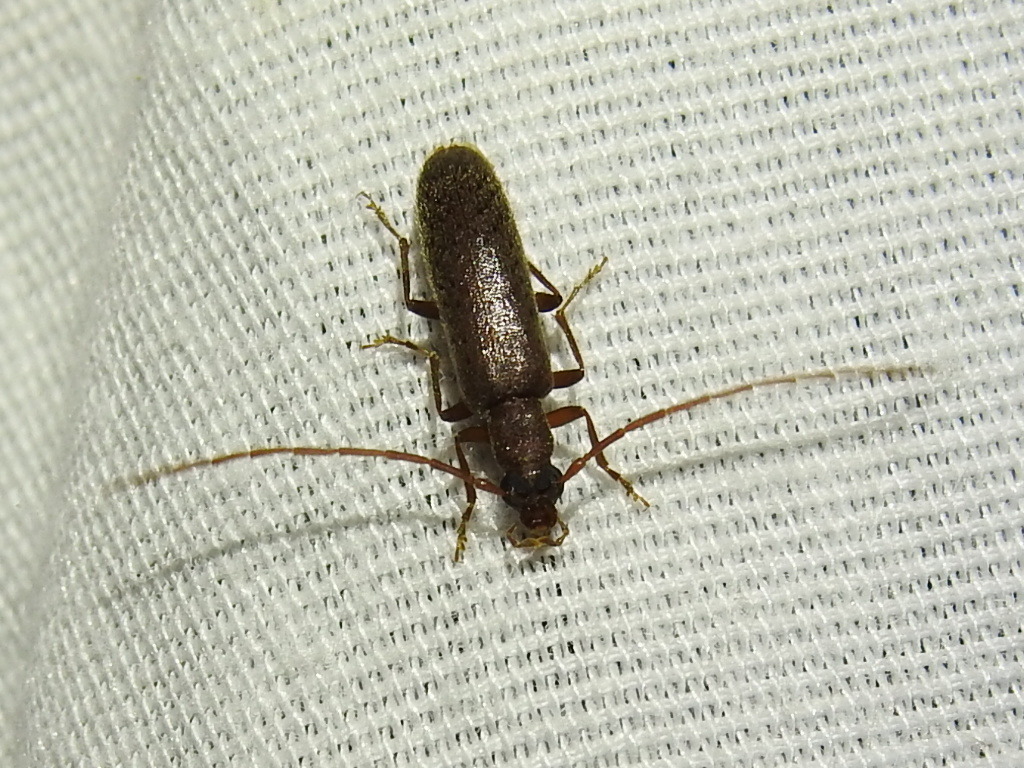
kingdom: Animalia
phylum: Arthropoda
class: Insecta
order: Coleoptera
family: Oedemeridae
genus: Sparedrus
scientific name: Sparedrus aspersus
